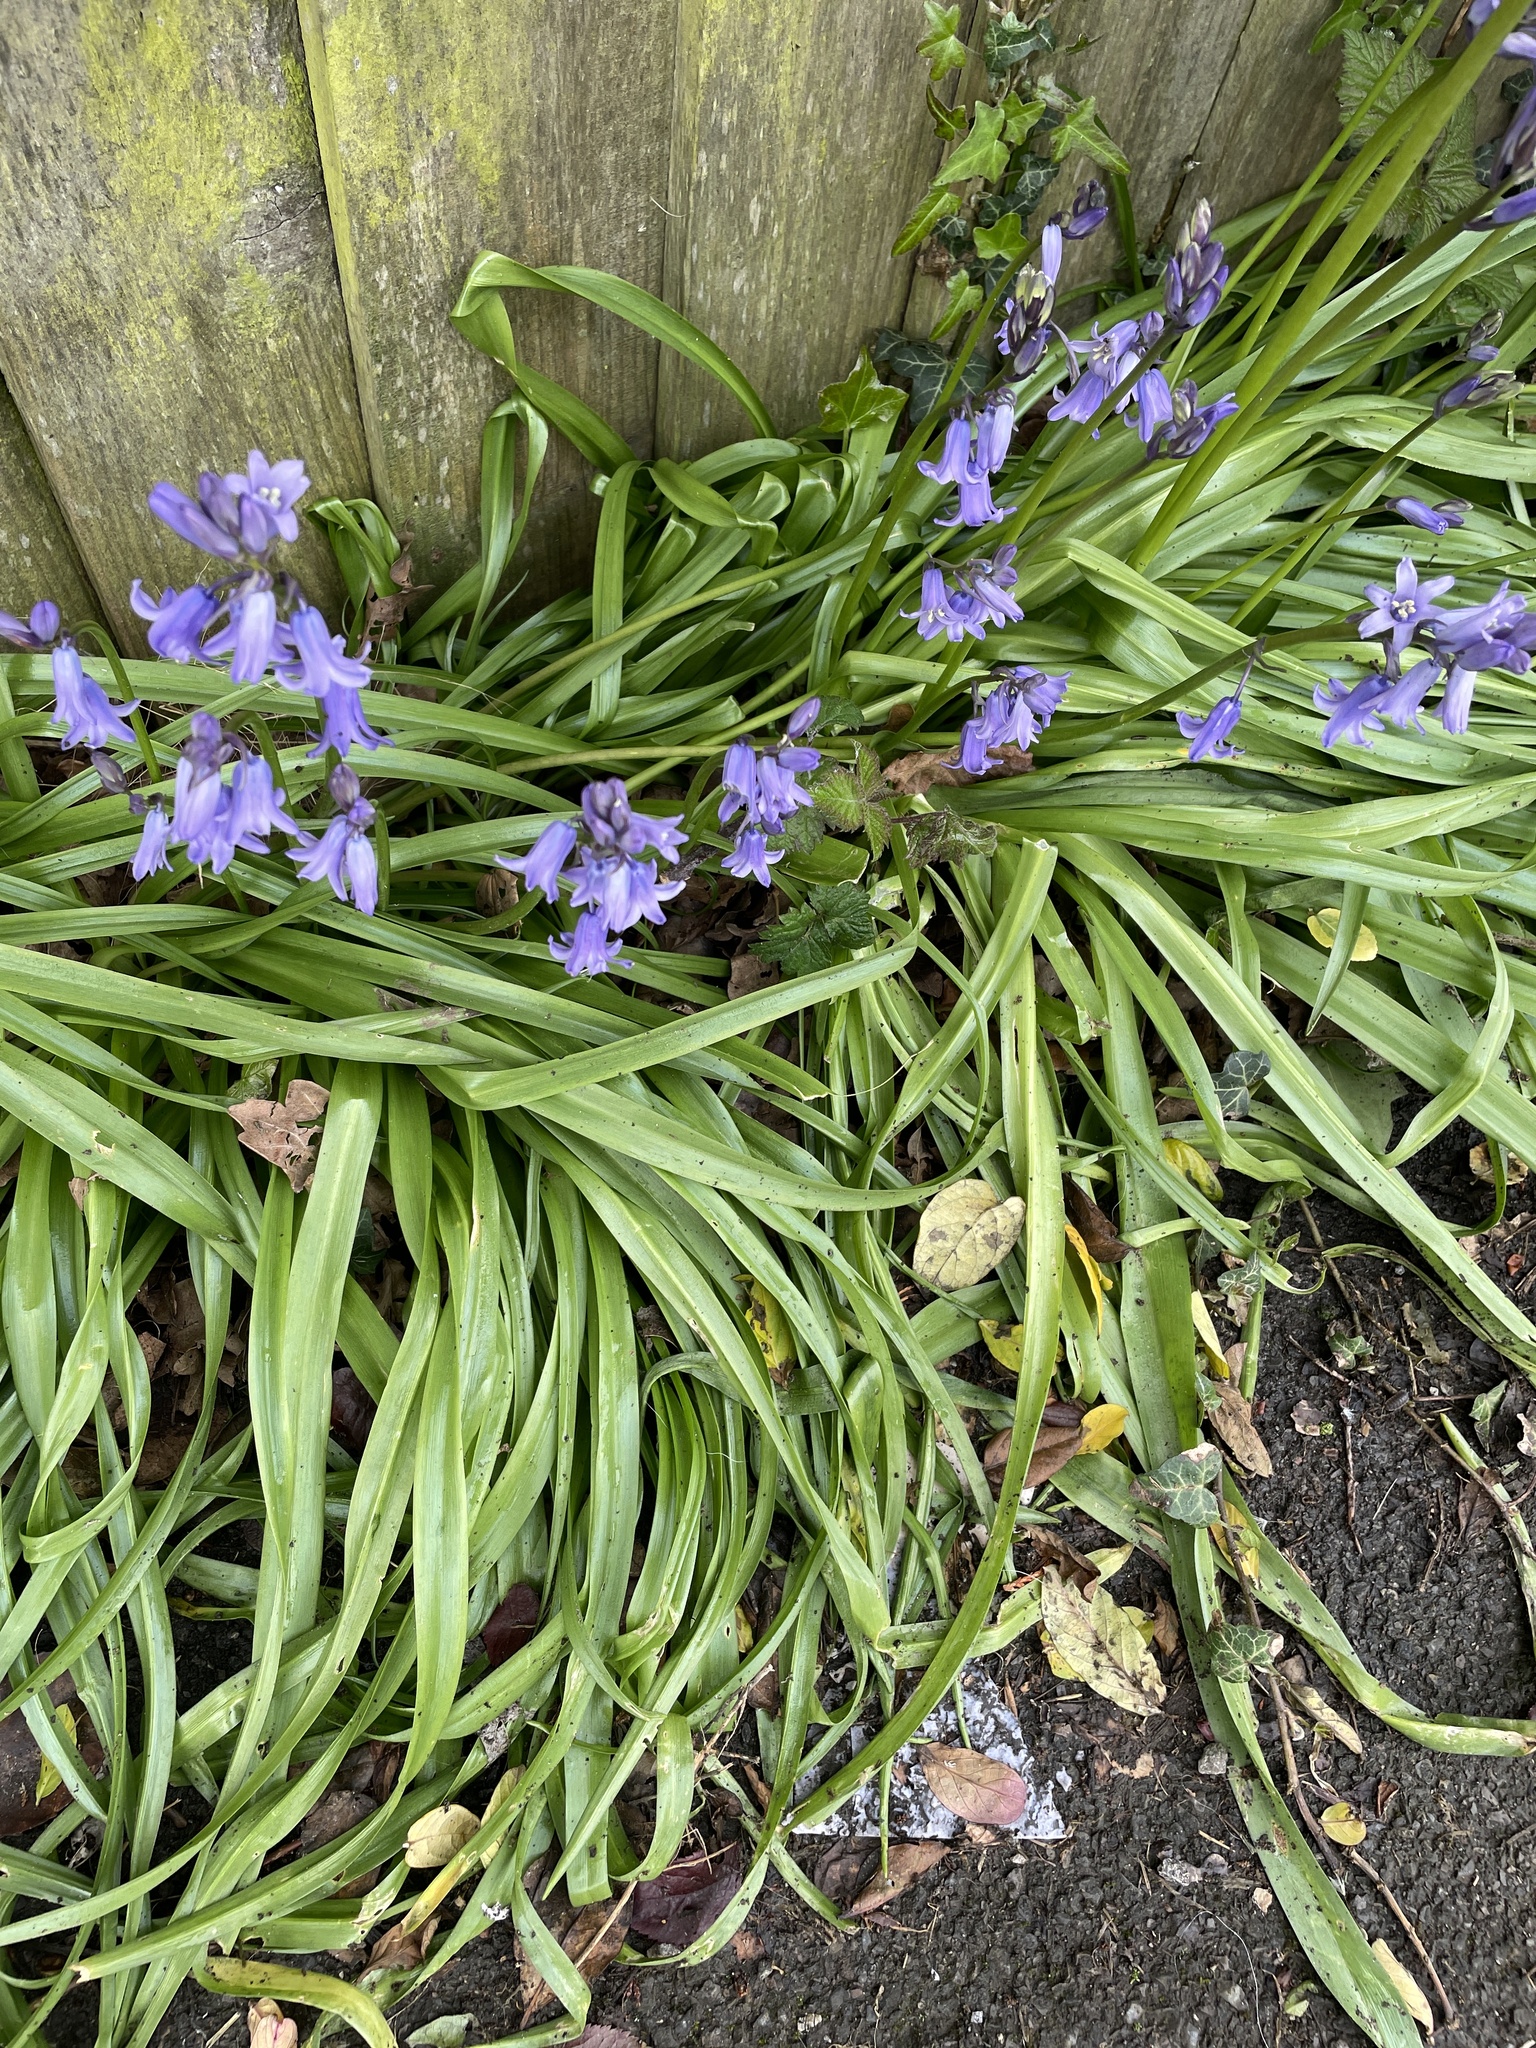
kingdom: Plantae
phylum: Tracheophyta
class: Liliopsida
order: Asparagales
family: Asparagaceae
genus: Hyacinthoides
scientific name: Hyacinthoides hispanica
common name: Spanish bluebell
